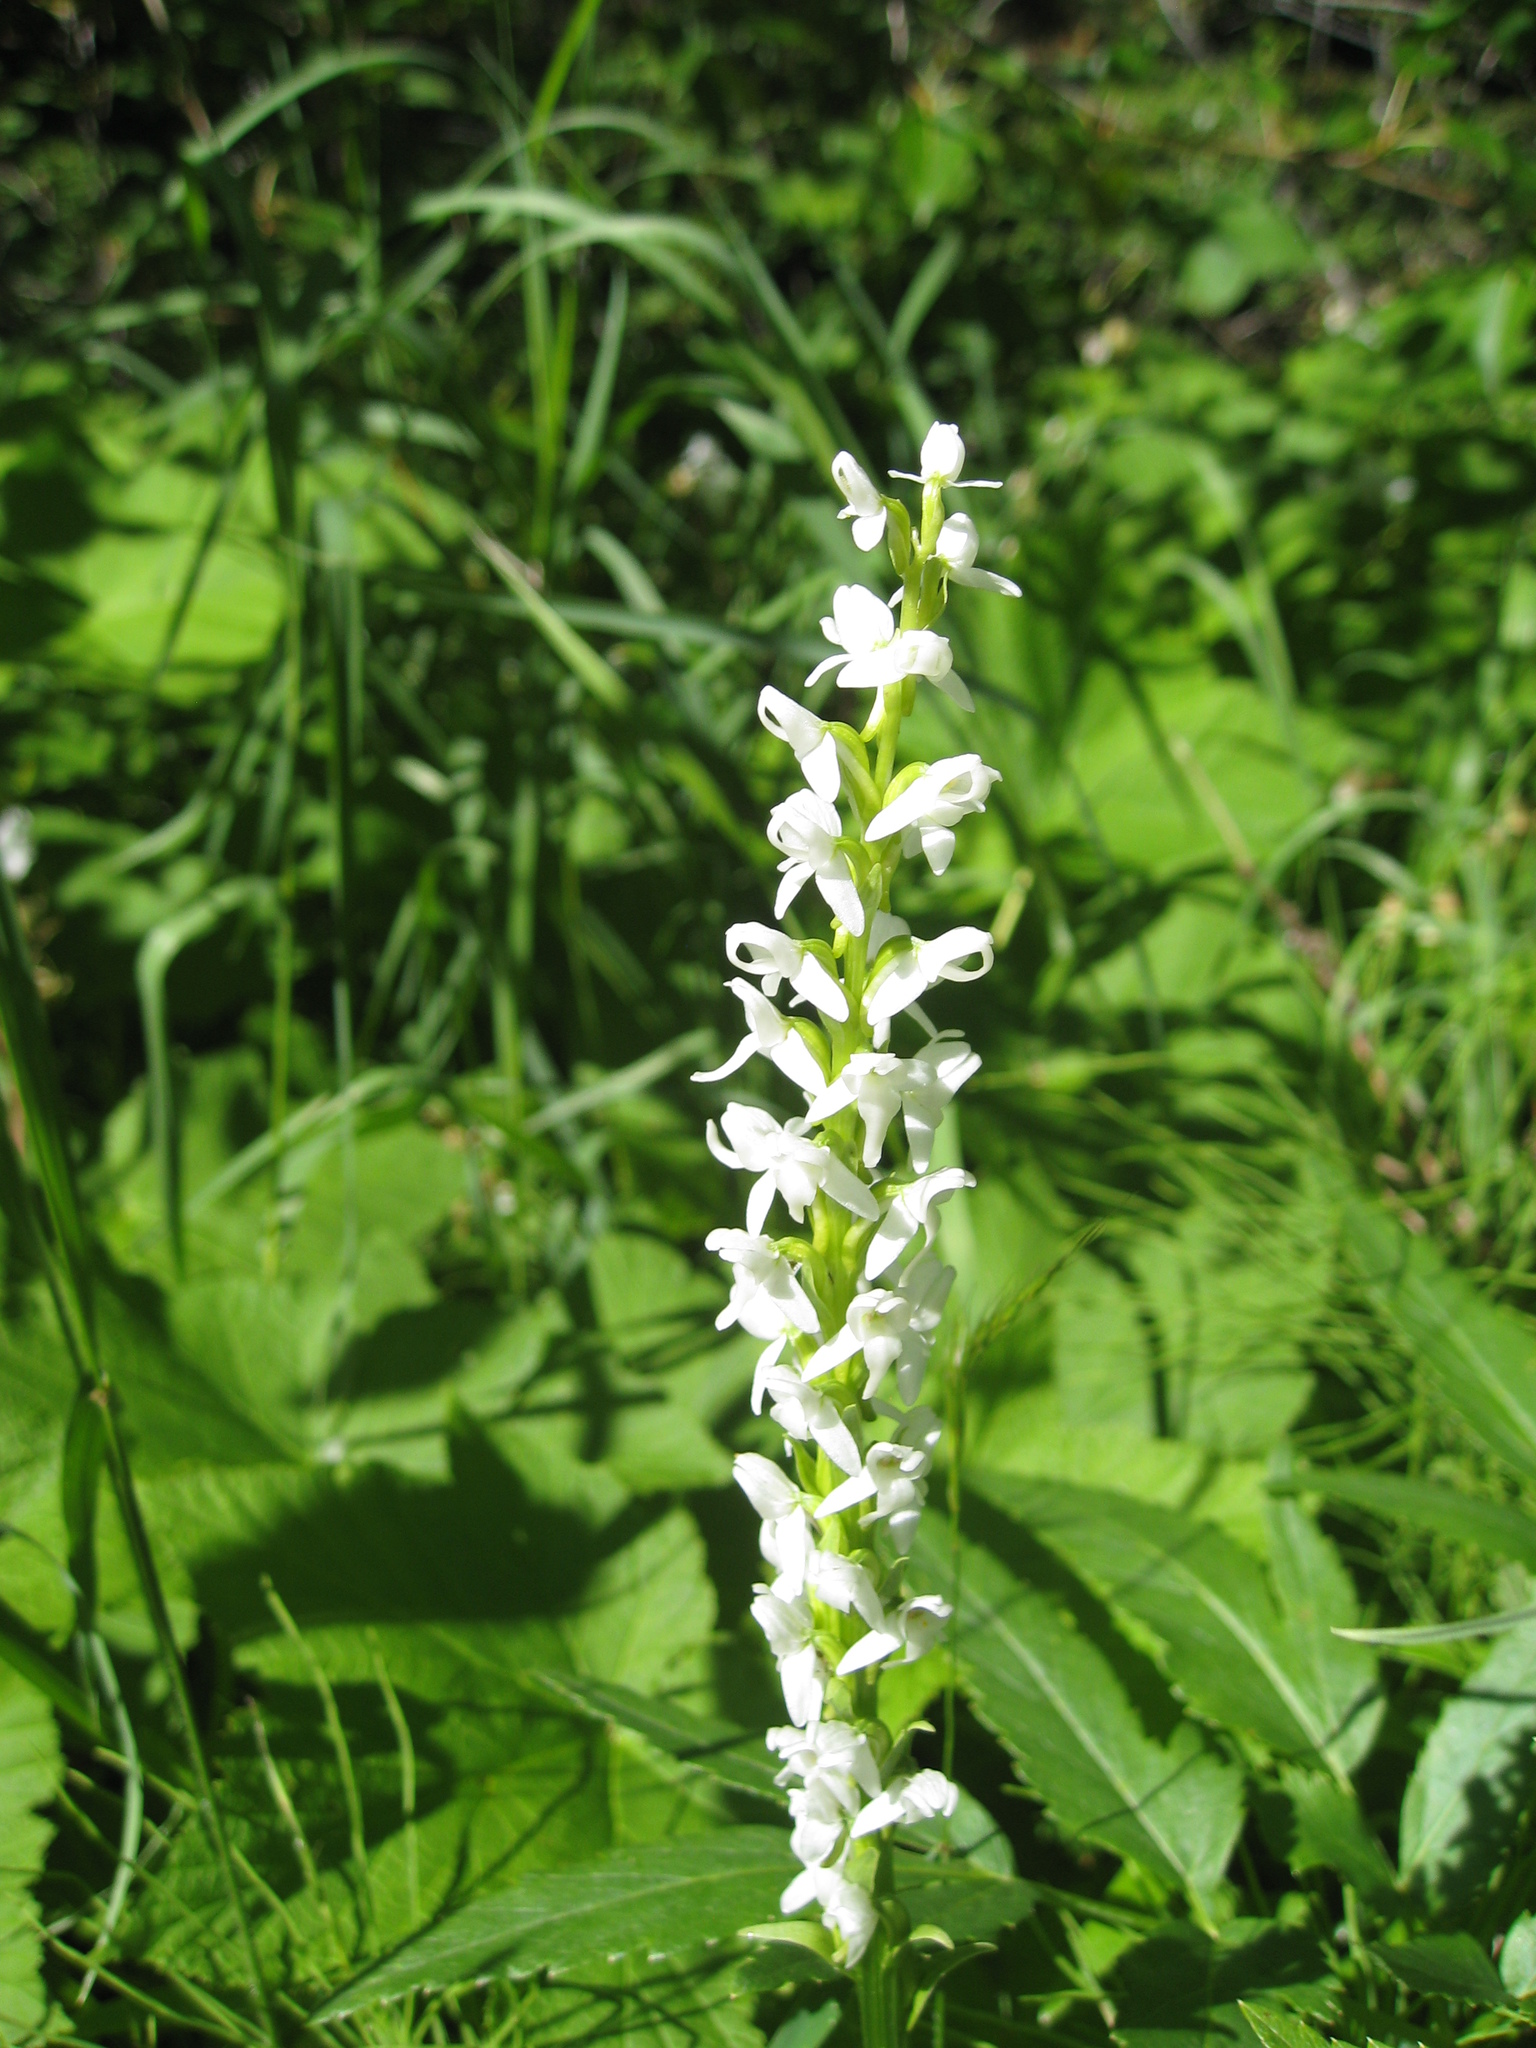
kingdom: Plantae
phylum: Tracheophyta
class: Liliopsida
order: Asparagales
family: Orchidaceae
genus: Platanthera
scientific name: Platanthera dilatata
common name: Bog candles
